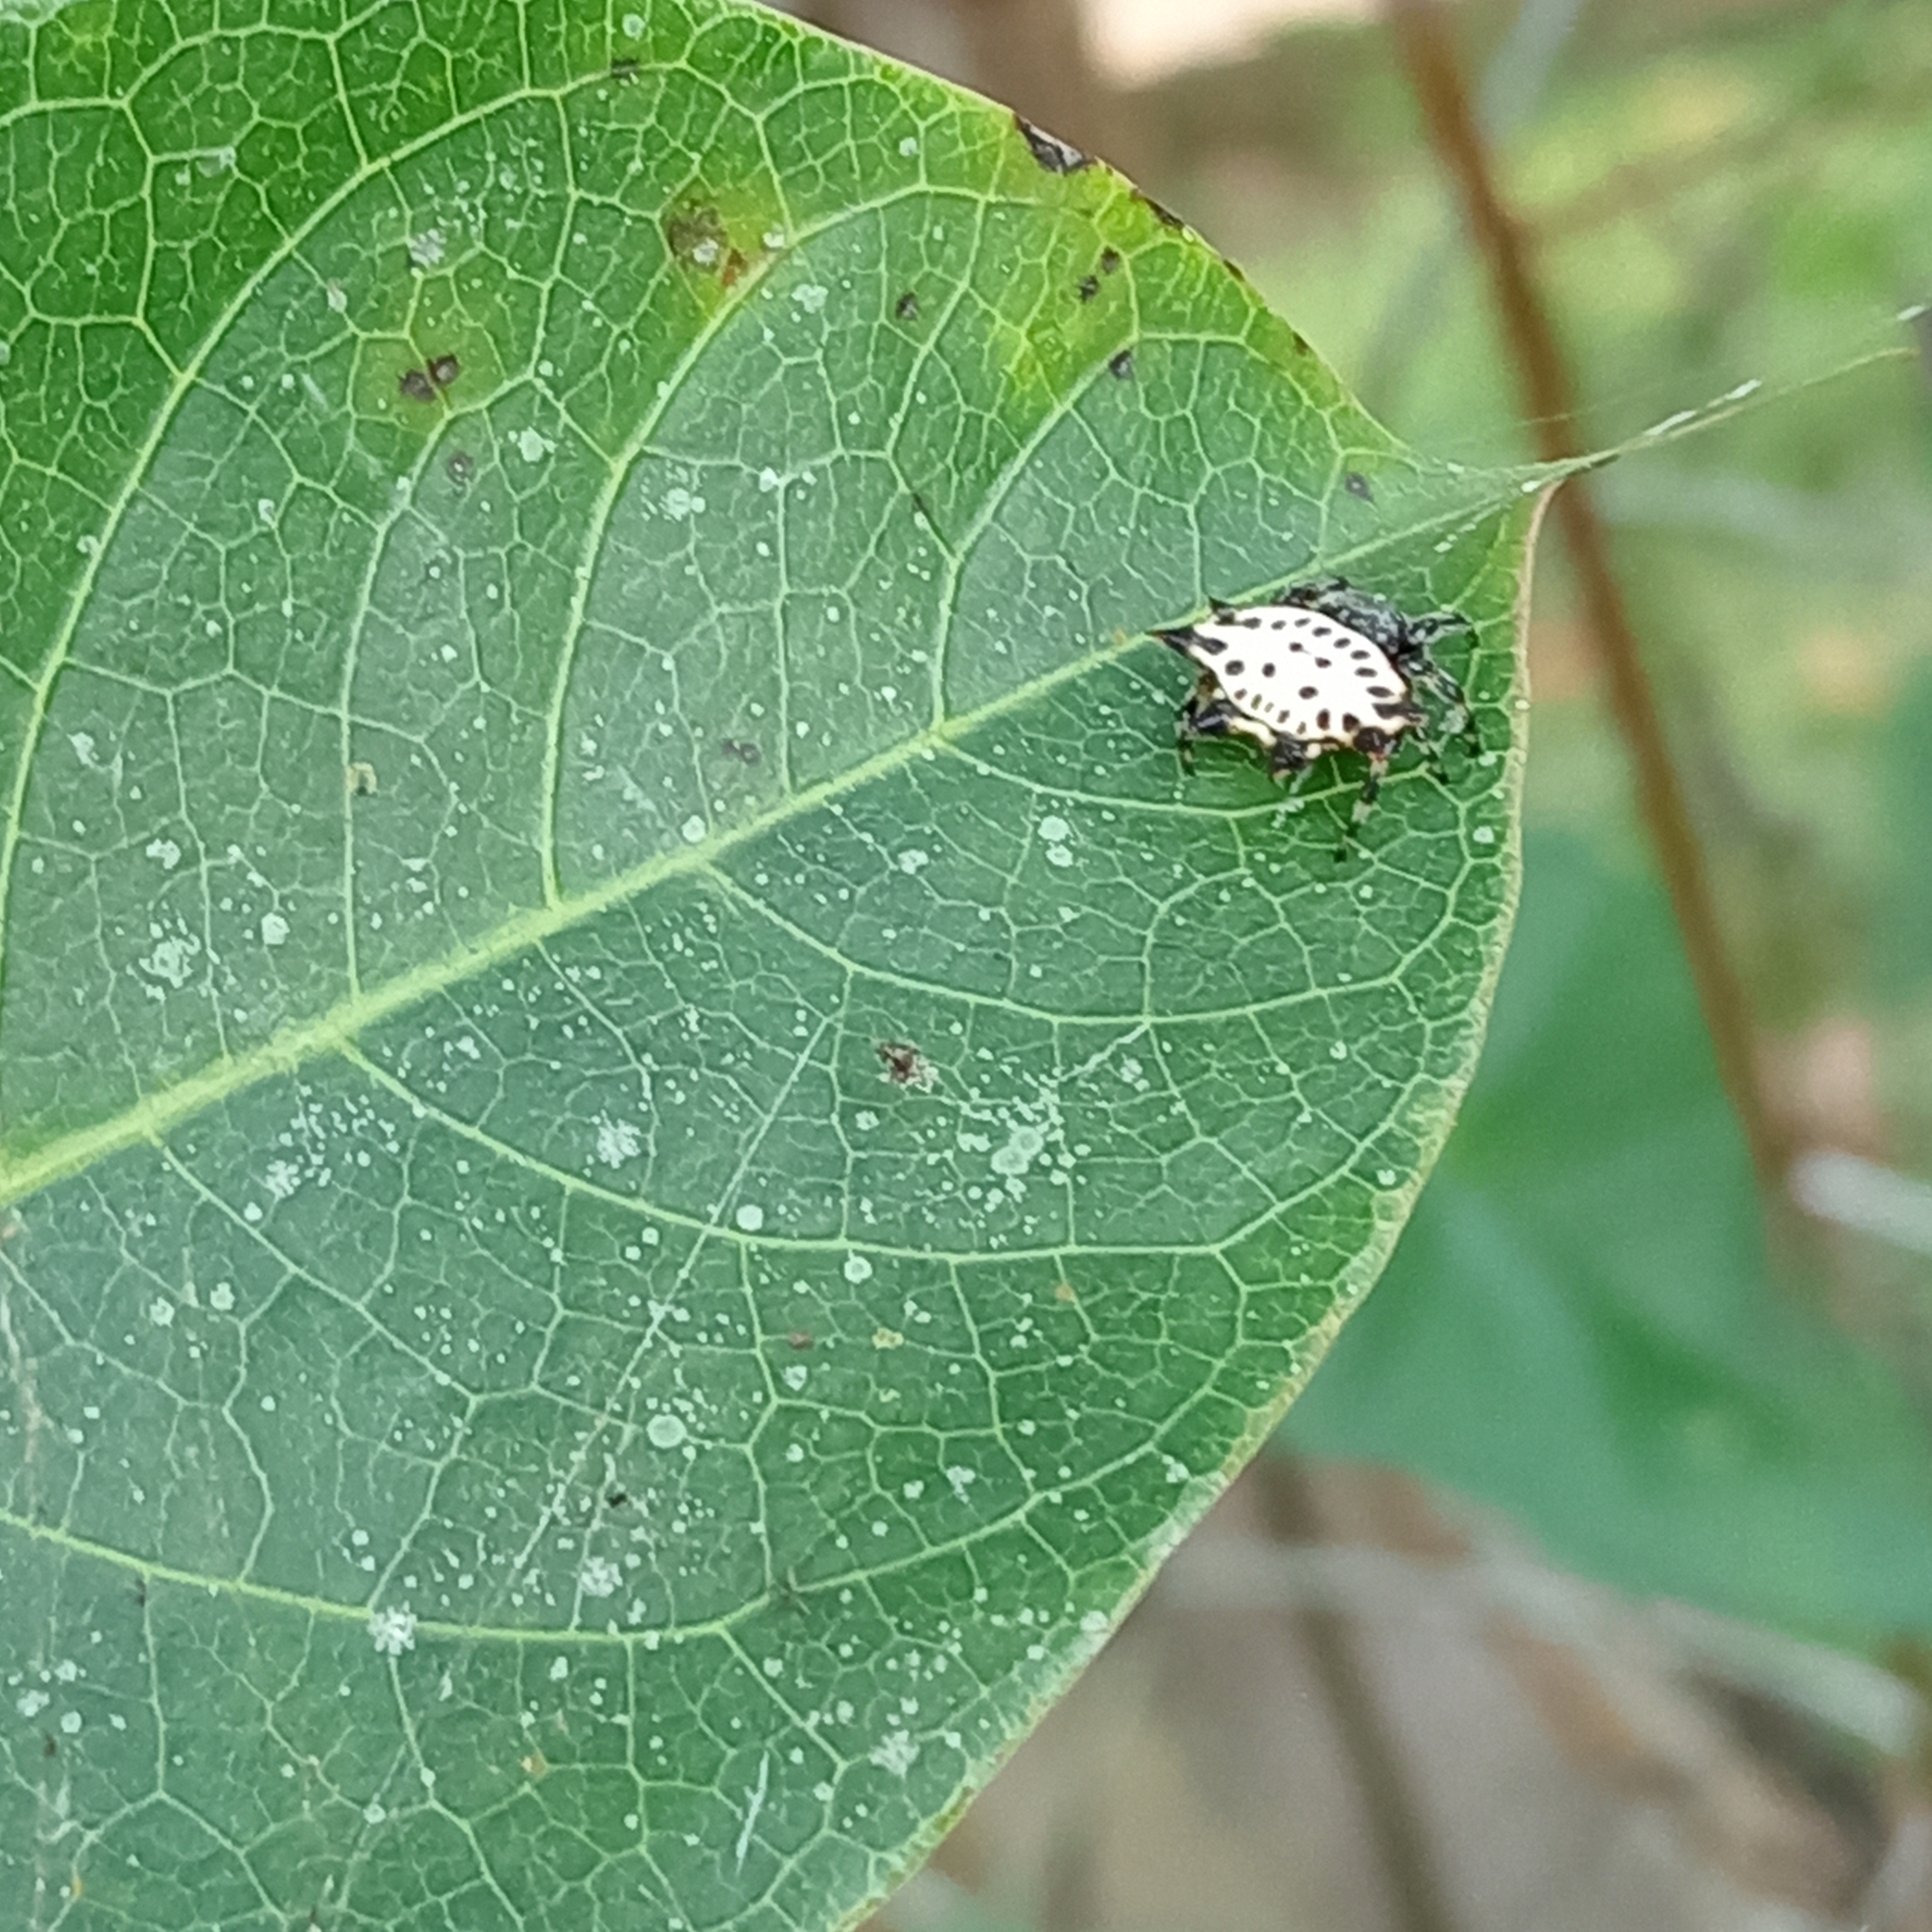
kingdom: Animalia
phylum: Arthropoda
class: Arachnida
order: Araneae
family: Araneidae
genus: Gasteracantha
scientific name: Gasteracantha cancriformis
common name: Orb weavers
